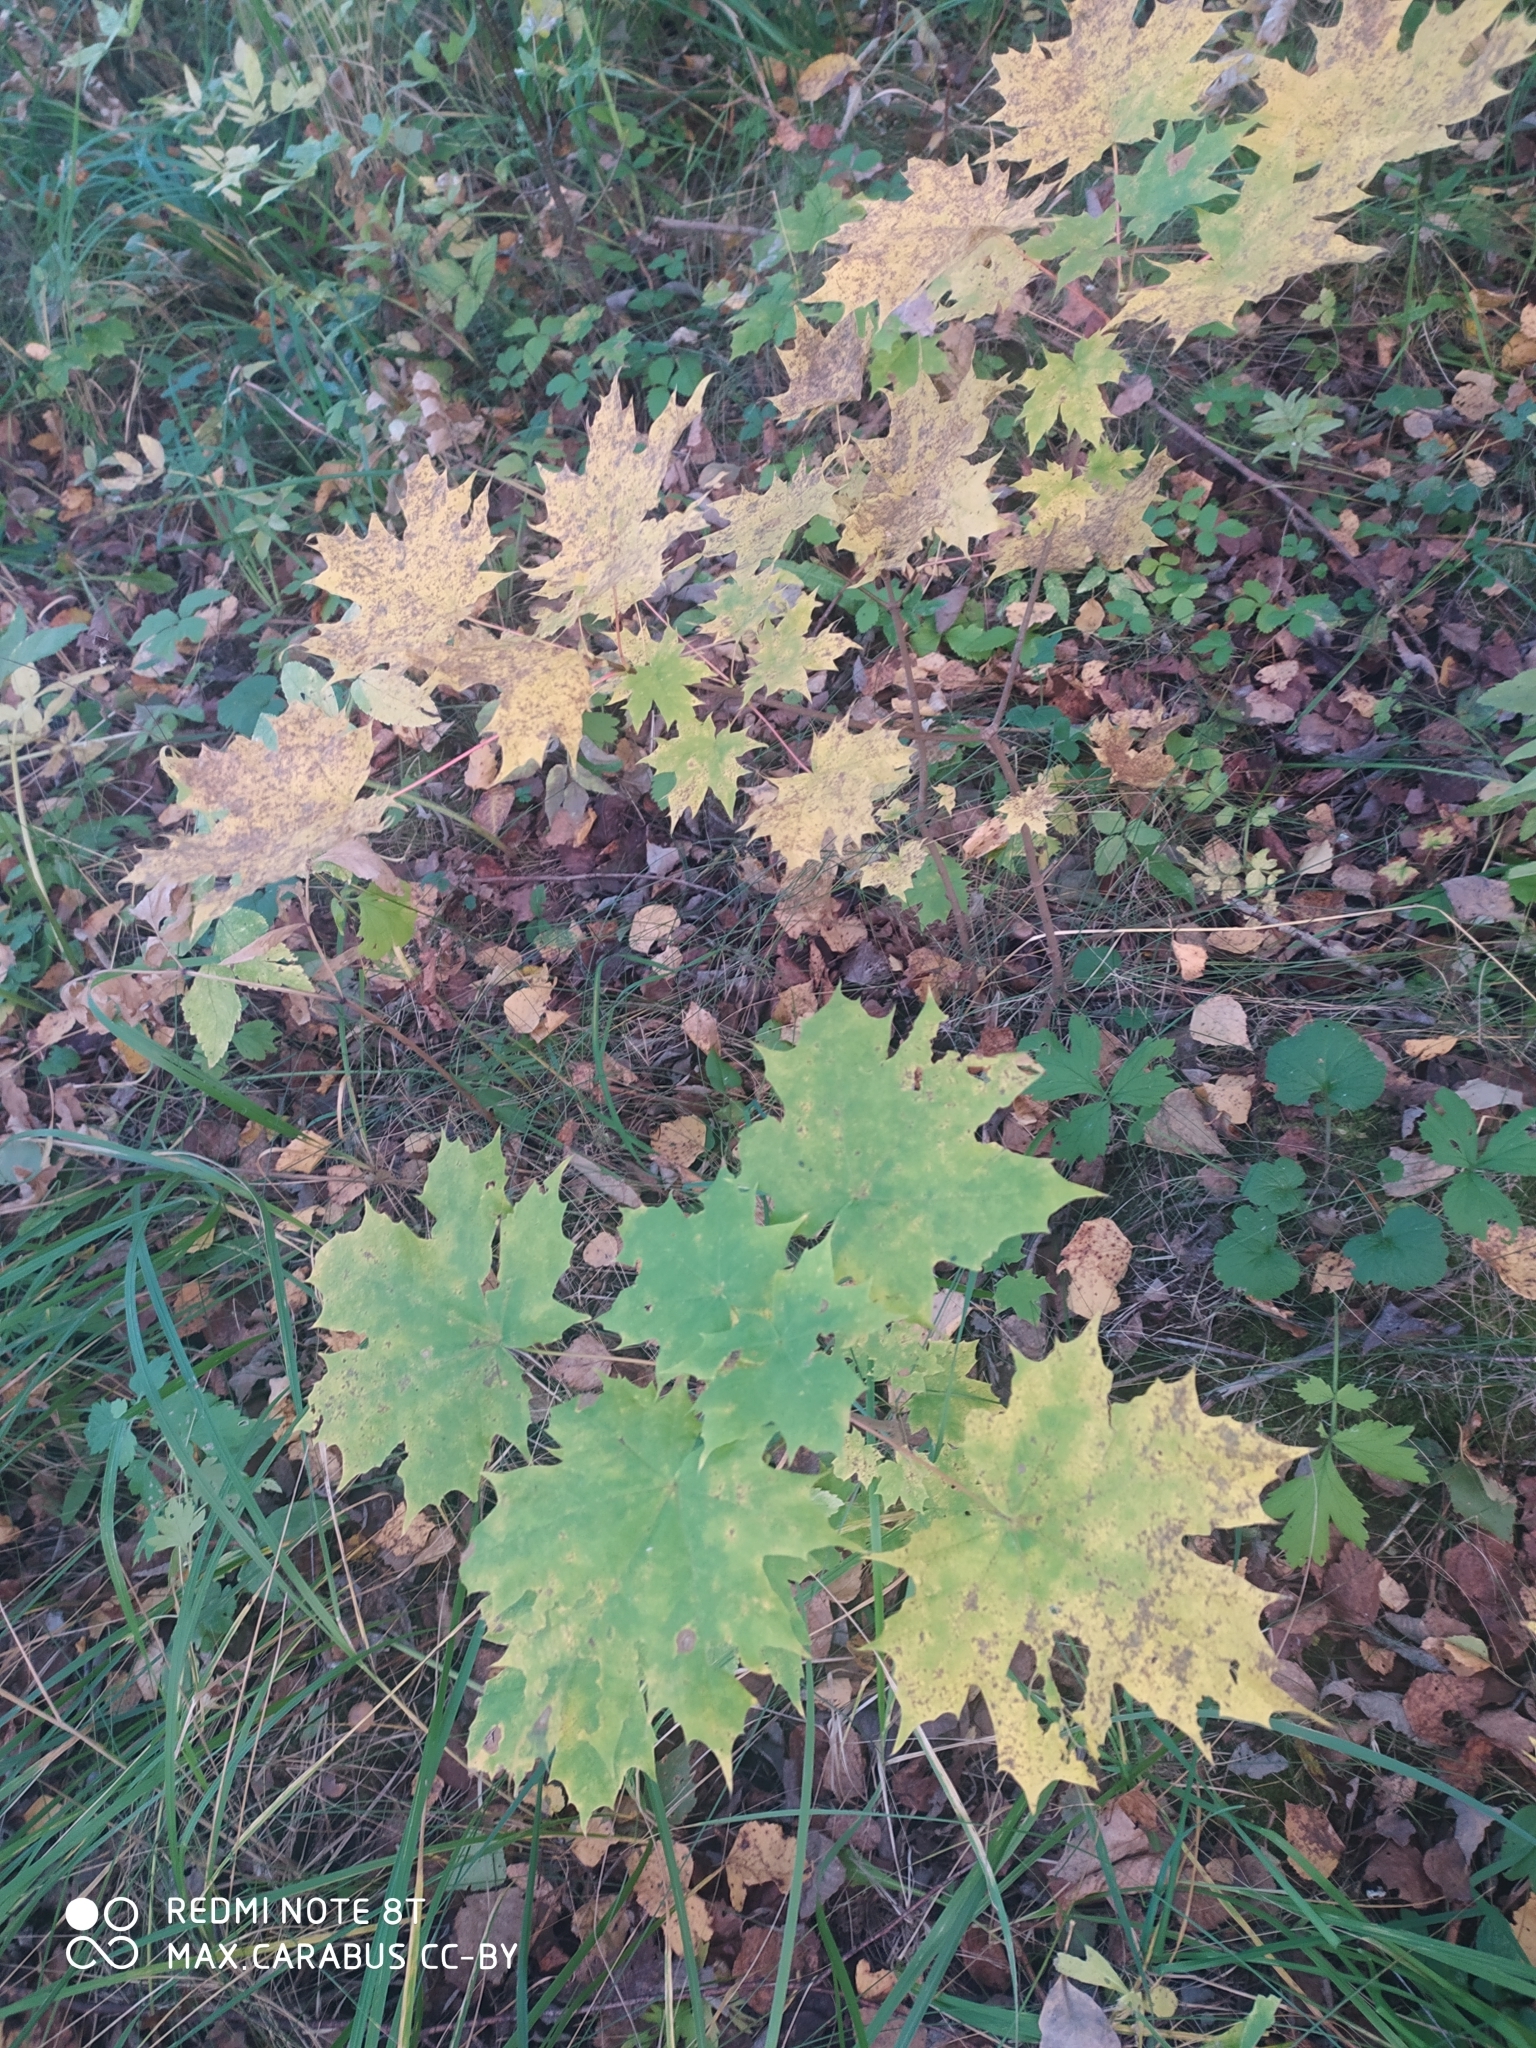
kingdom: Plantae
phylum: Tracheophyta
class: Magnoliopsida
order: Sapindales
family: Sapindaceae
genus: Acer
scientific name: Acer platanoides
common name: Norway maple
